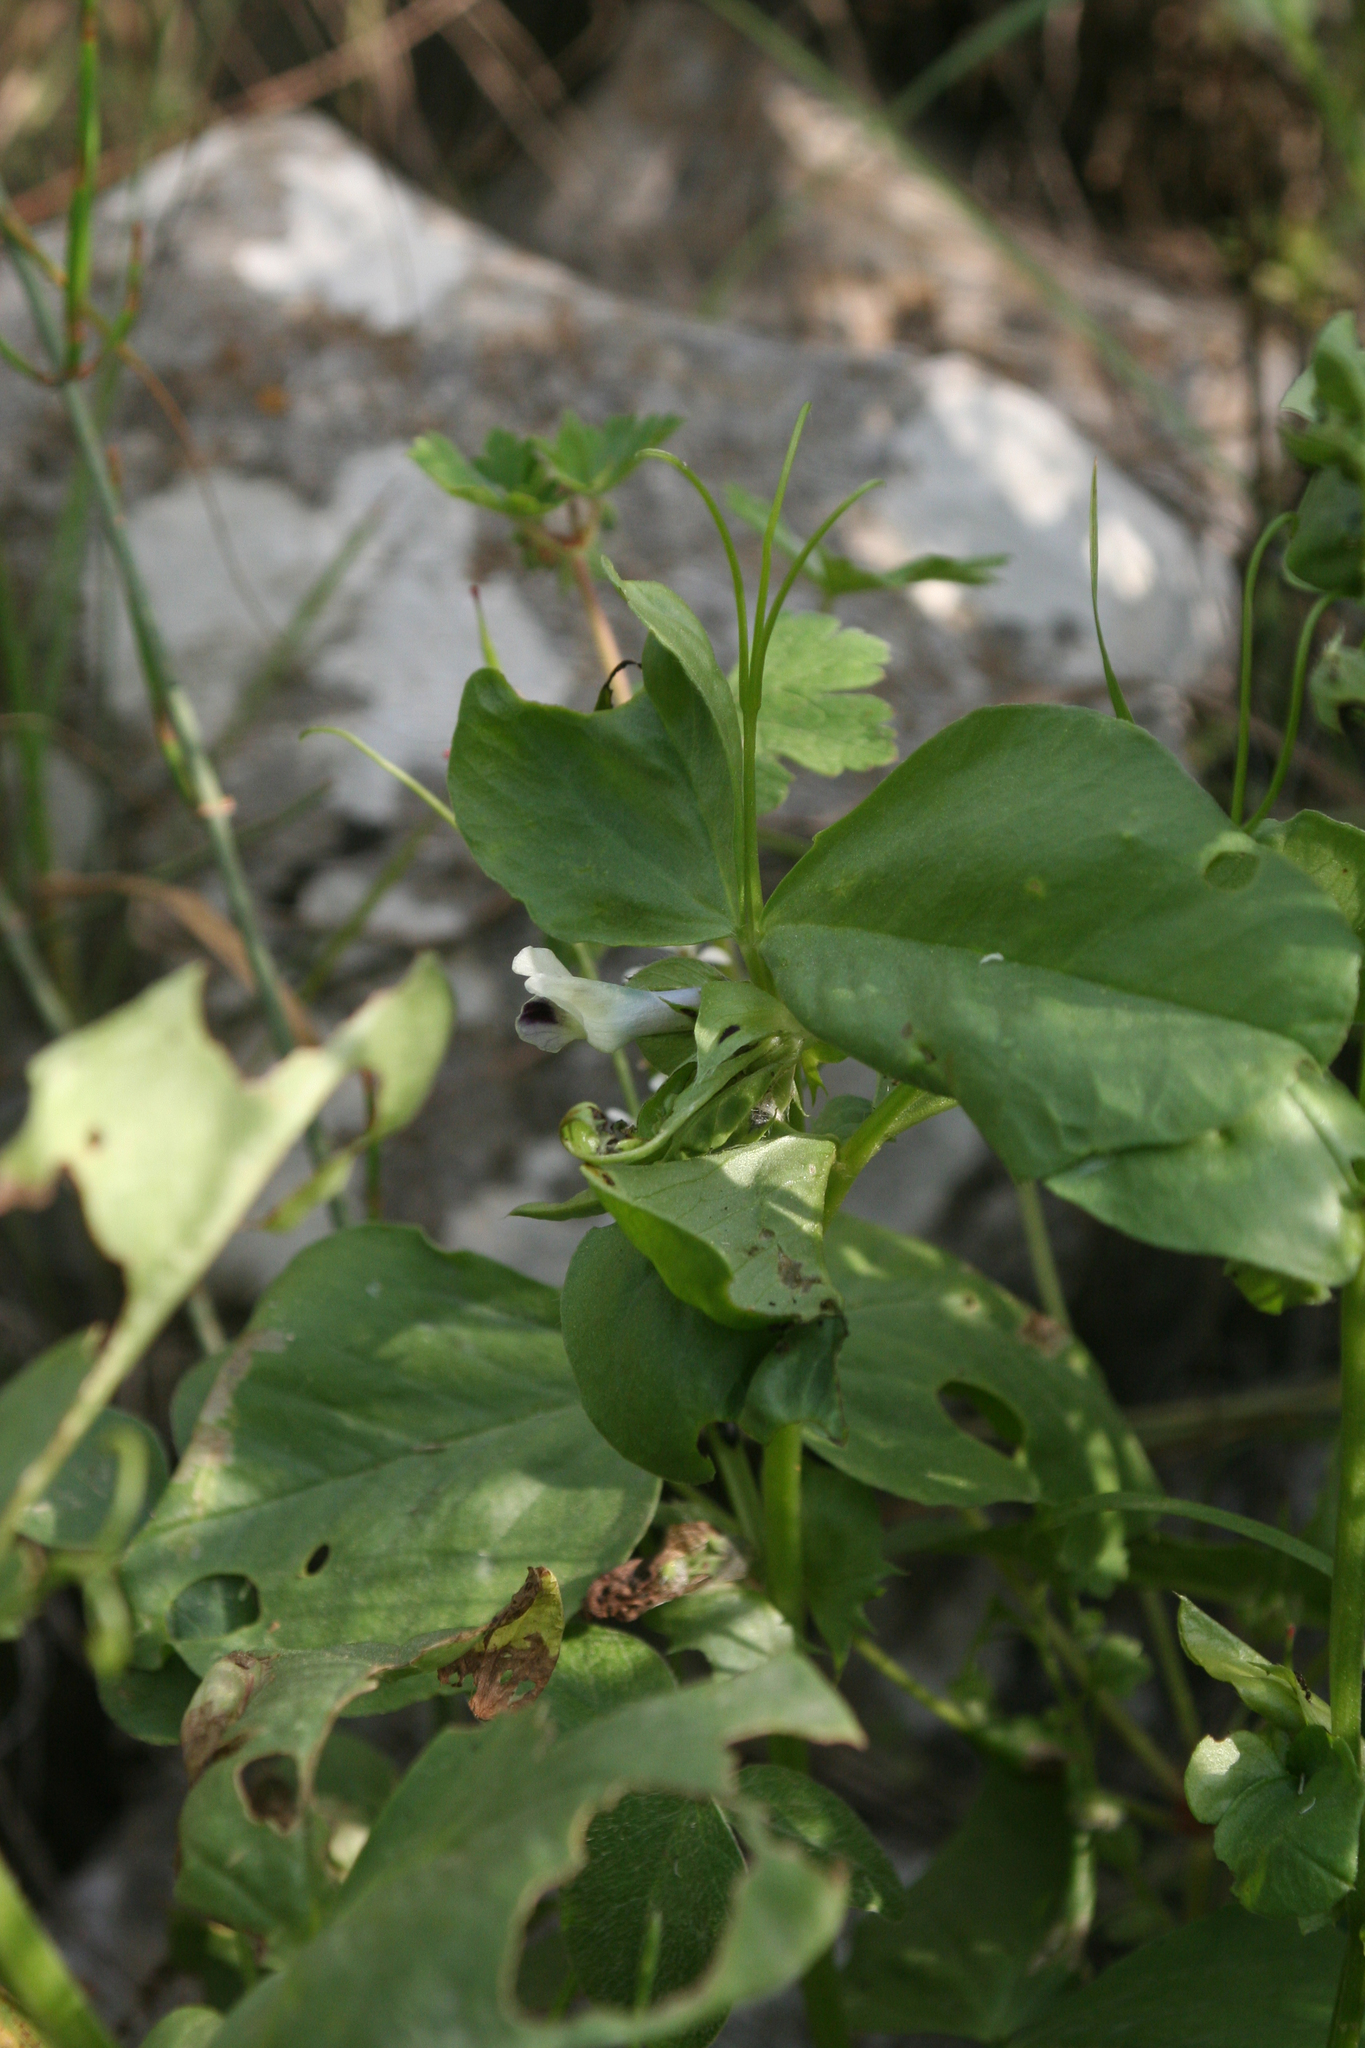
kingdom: Plantae
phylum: Tracheophyta
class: Magnoliopsida
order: Fabales
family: Fabaceae
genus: Vicia
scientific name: Vicia galilaea
